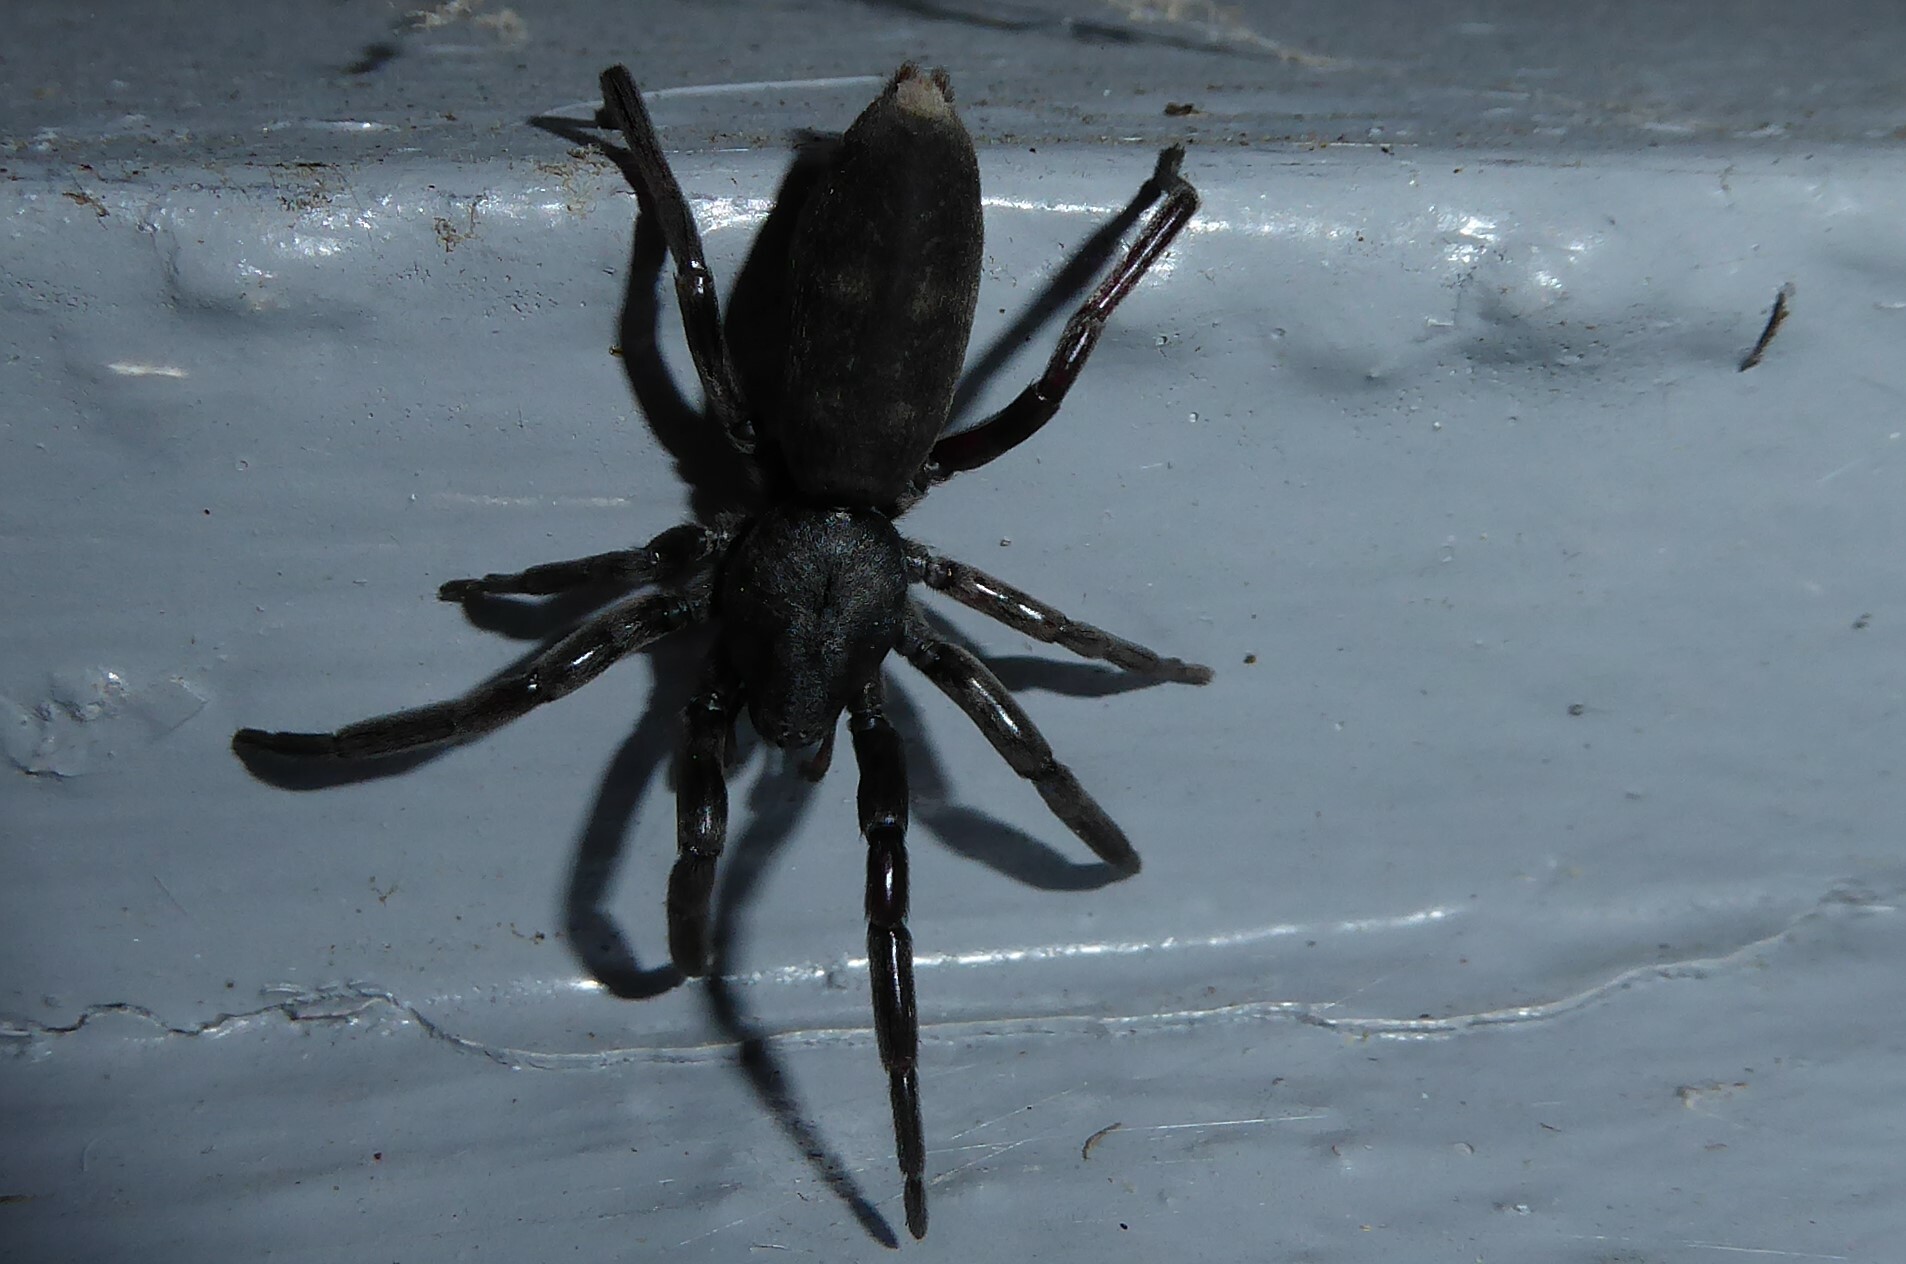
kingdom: Animalia
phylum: Arthropoda
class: Arachnida
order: Araneae
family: Lamponidae
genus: Lampona
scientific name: Lampona cylindrata
